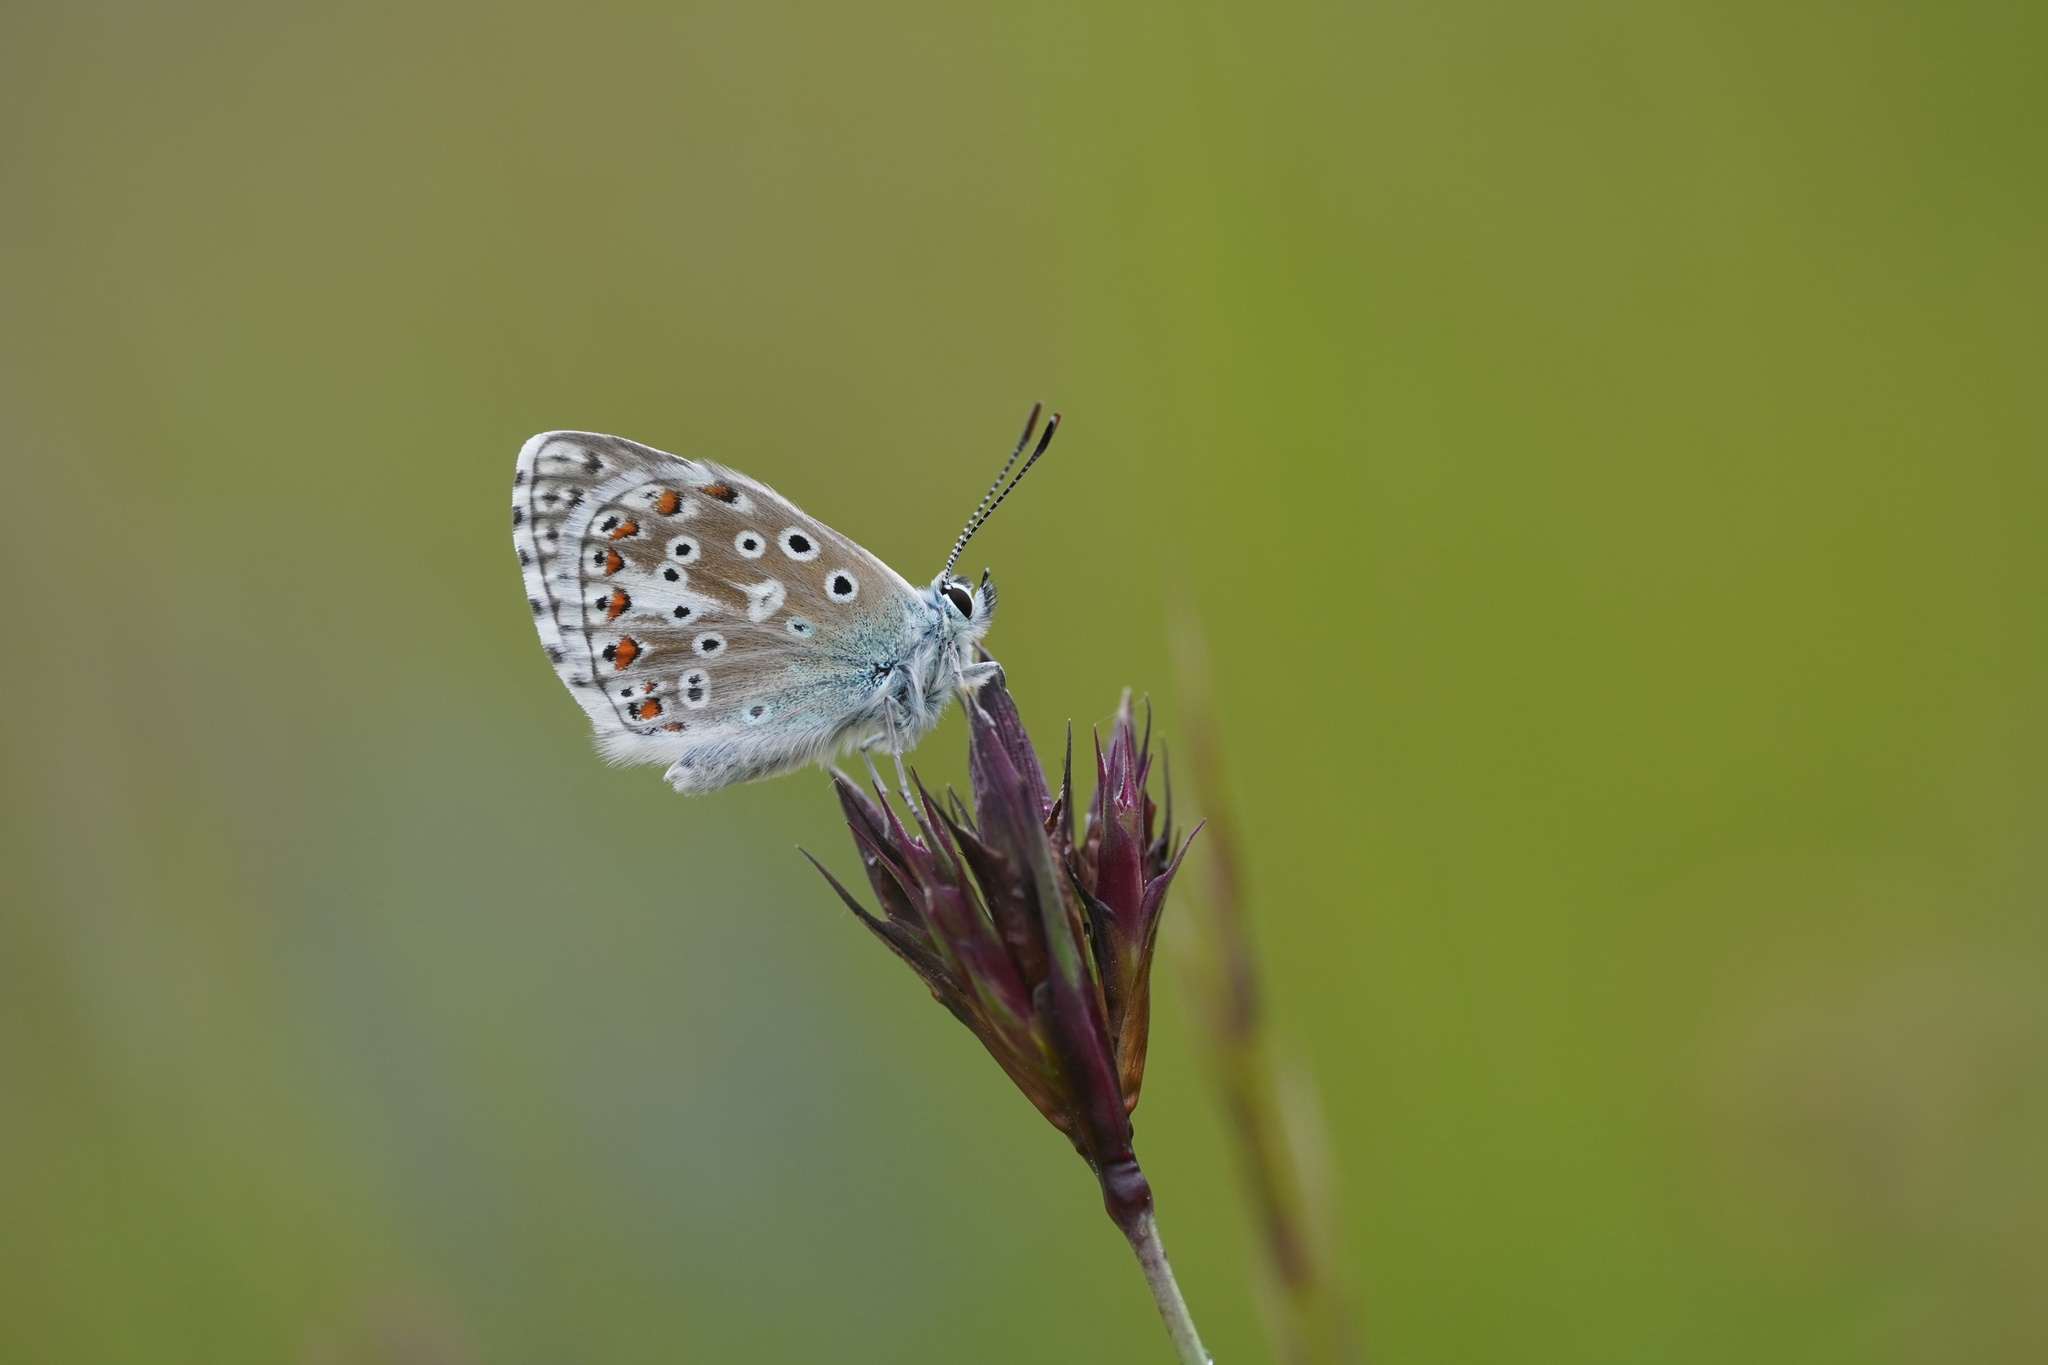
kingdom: Animalia
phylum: Arthropoda
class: Insecta
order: Lepidoptera
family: Lycaenidae
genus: Lysandra
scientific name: Lysandra bellargus
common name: Adonis blue
